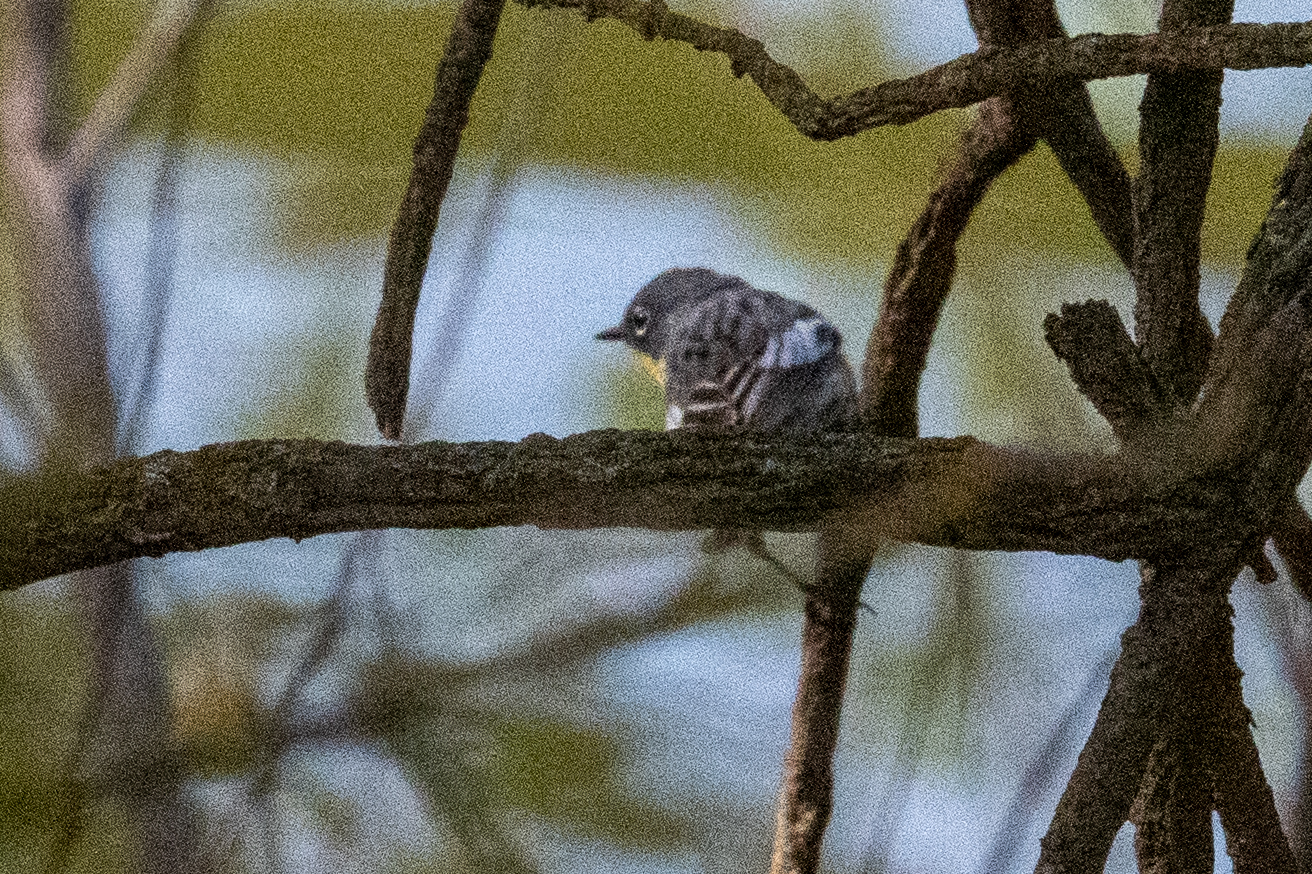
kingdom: Animalia
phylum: Chordata
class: Aves
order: Passeriformes
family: Parulidae
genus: Setophaga
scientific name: Setophaga coronata
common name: Myrtle warbler
